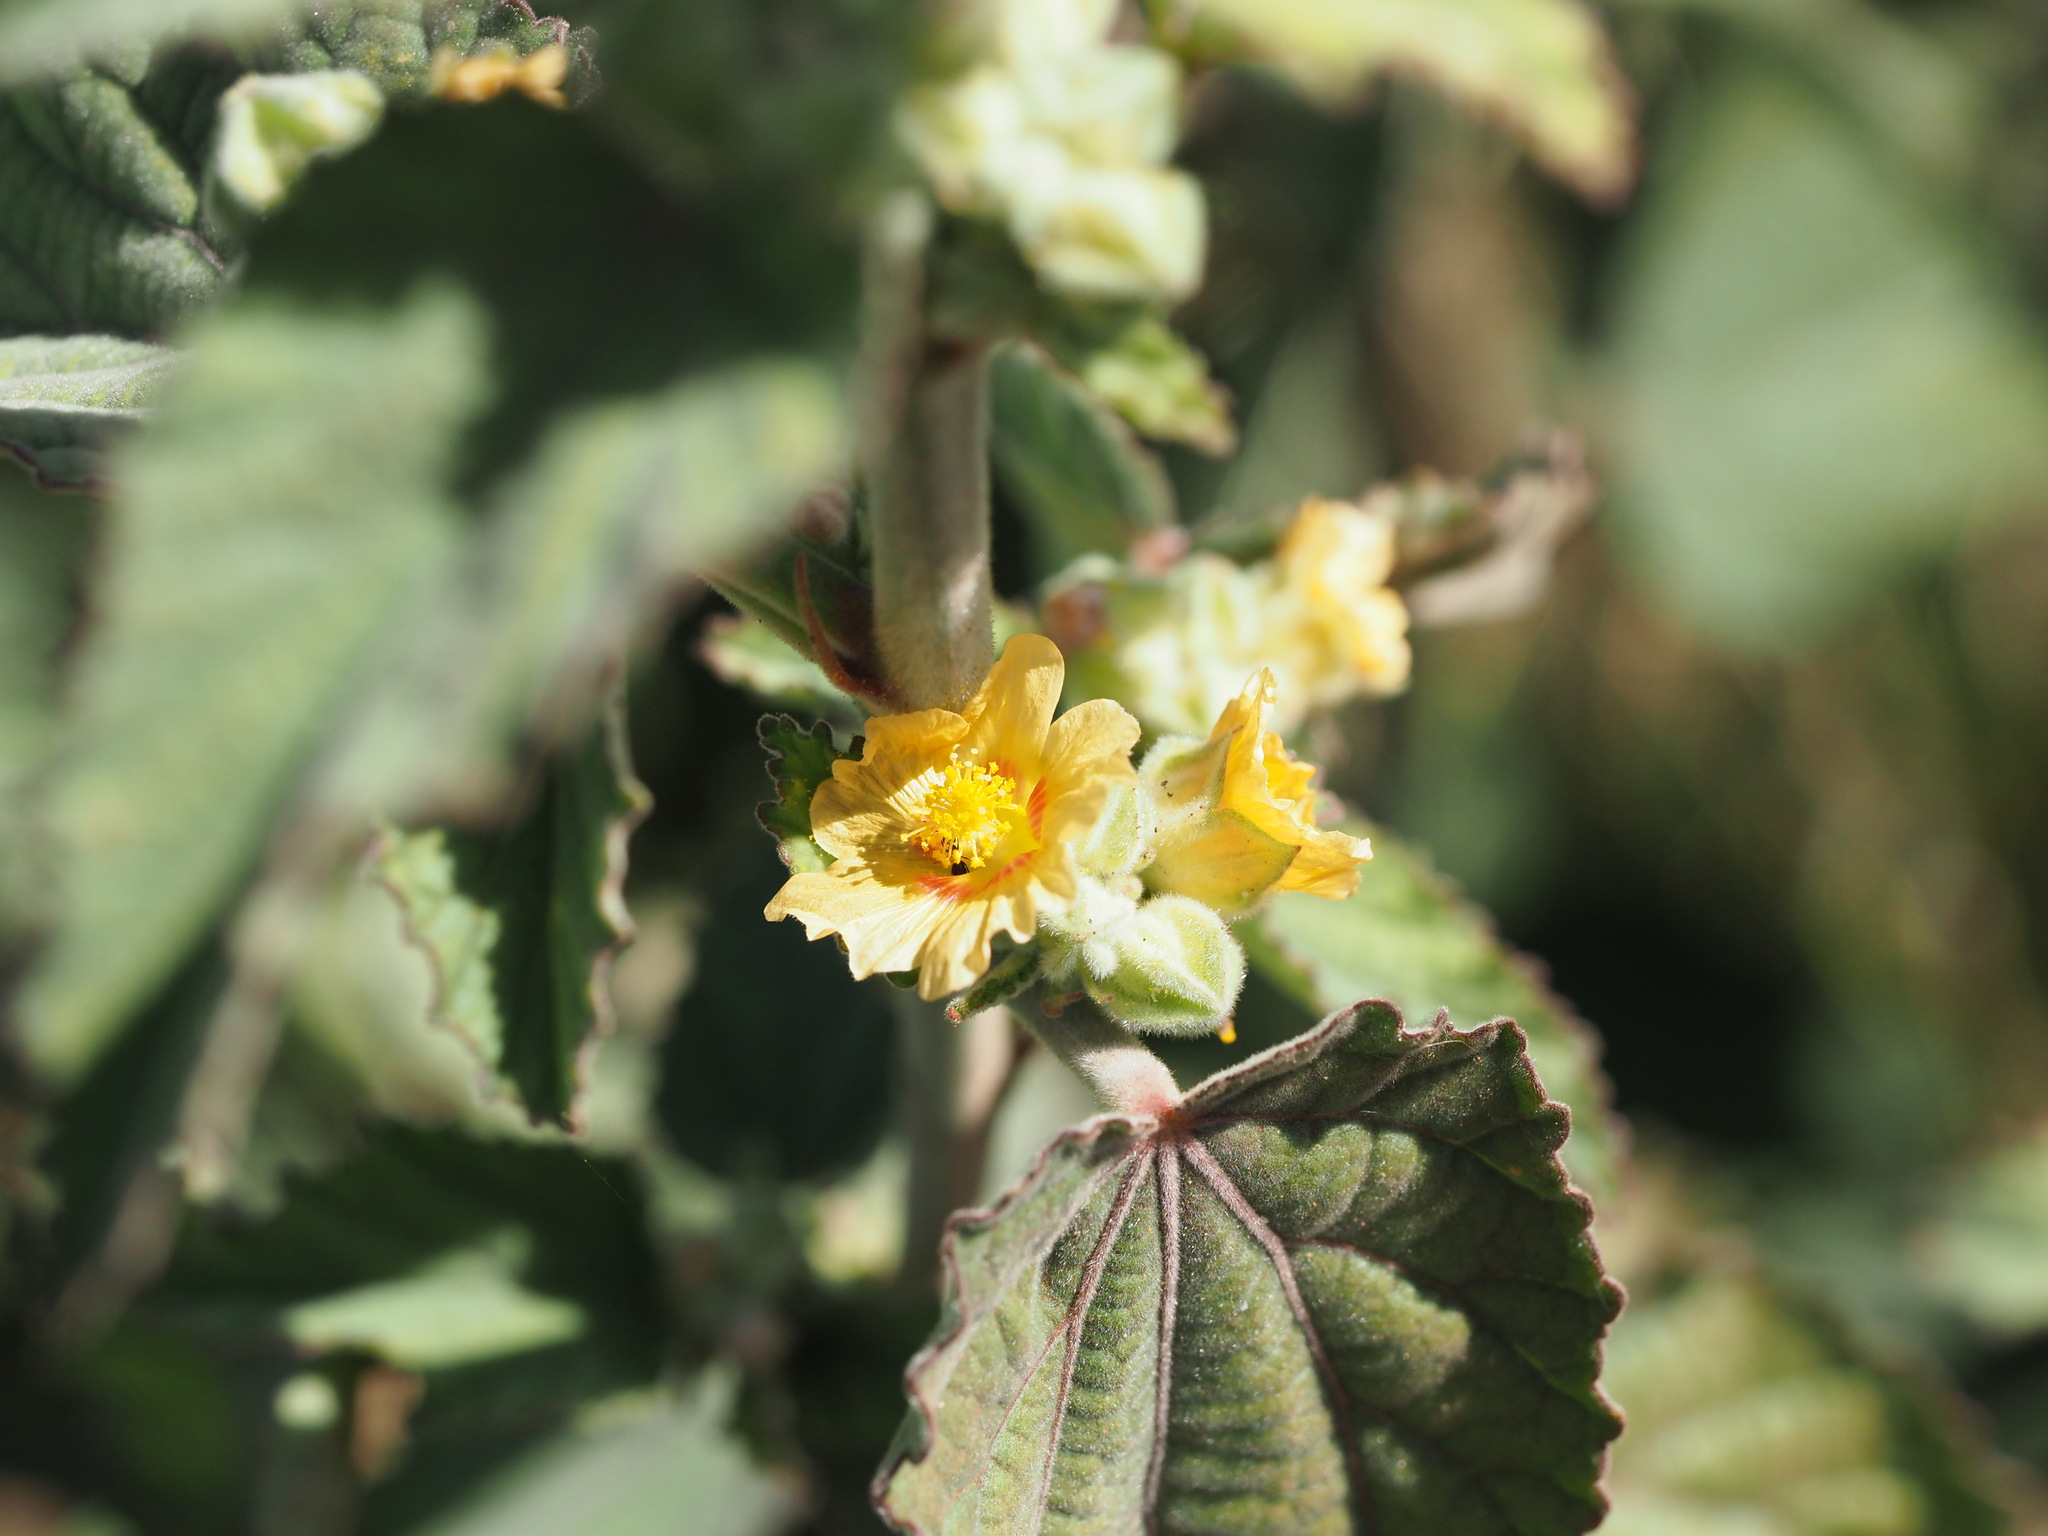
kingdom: Plantae
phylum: Tracheophyta
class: Magnoliopsida
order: Malvales
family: Malvaceae
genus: Sida
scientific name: Sida cordifolia
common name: Ilima
